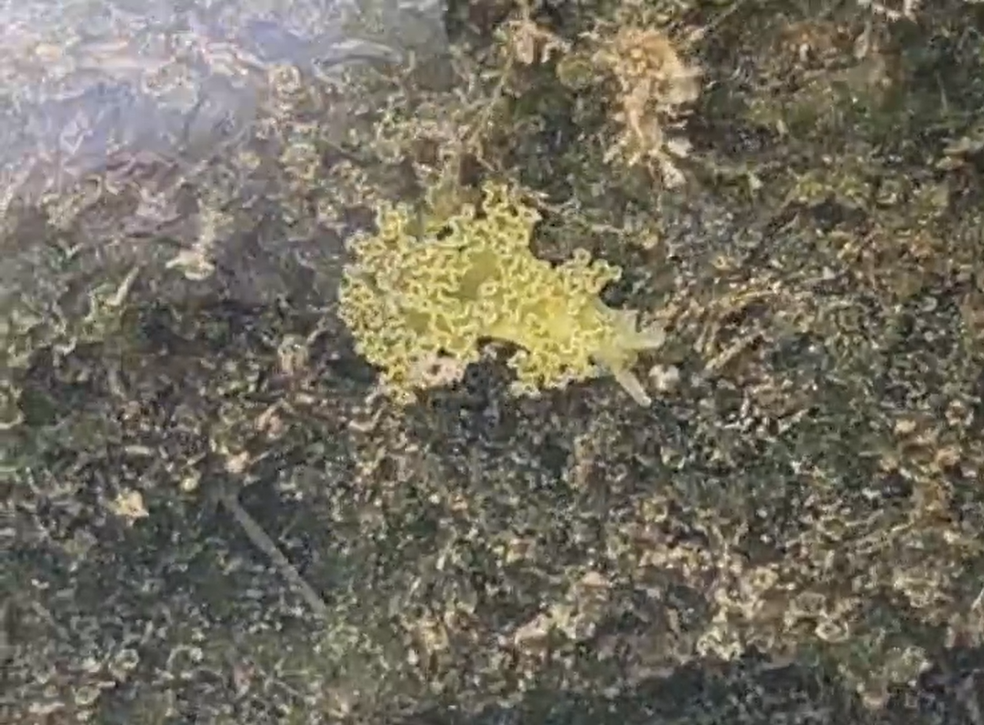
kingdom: Animalia
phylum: Mollusca
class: Gastropoda
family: Plakobranchidae
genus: Elysia
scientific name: Elysia crispata
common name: Lettuce slug
